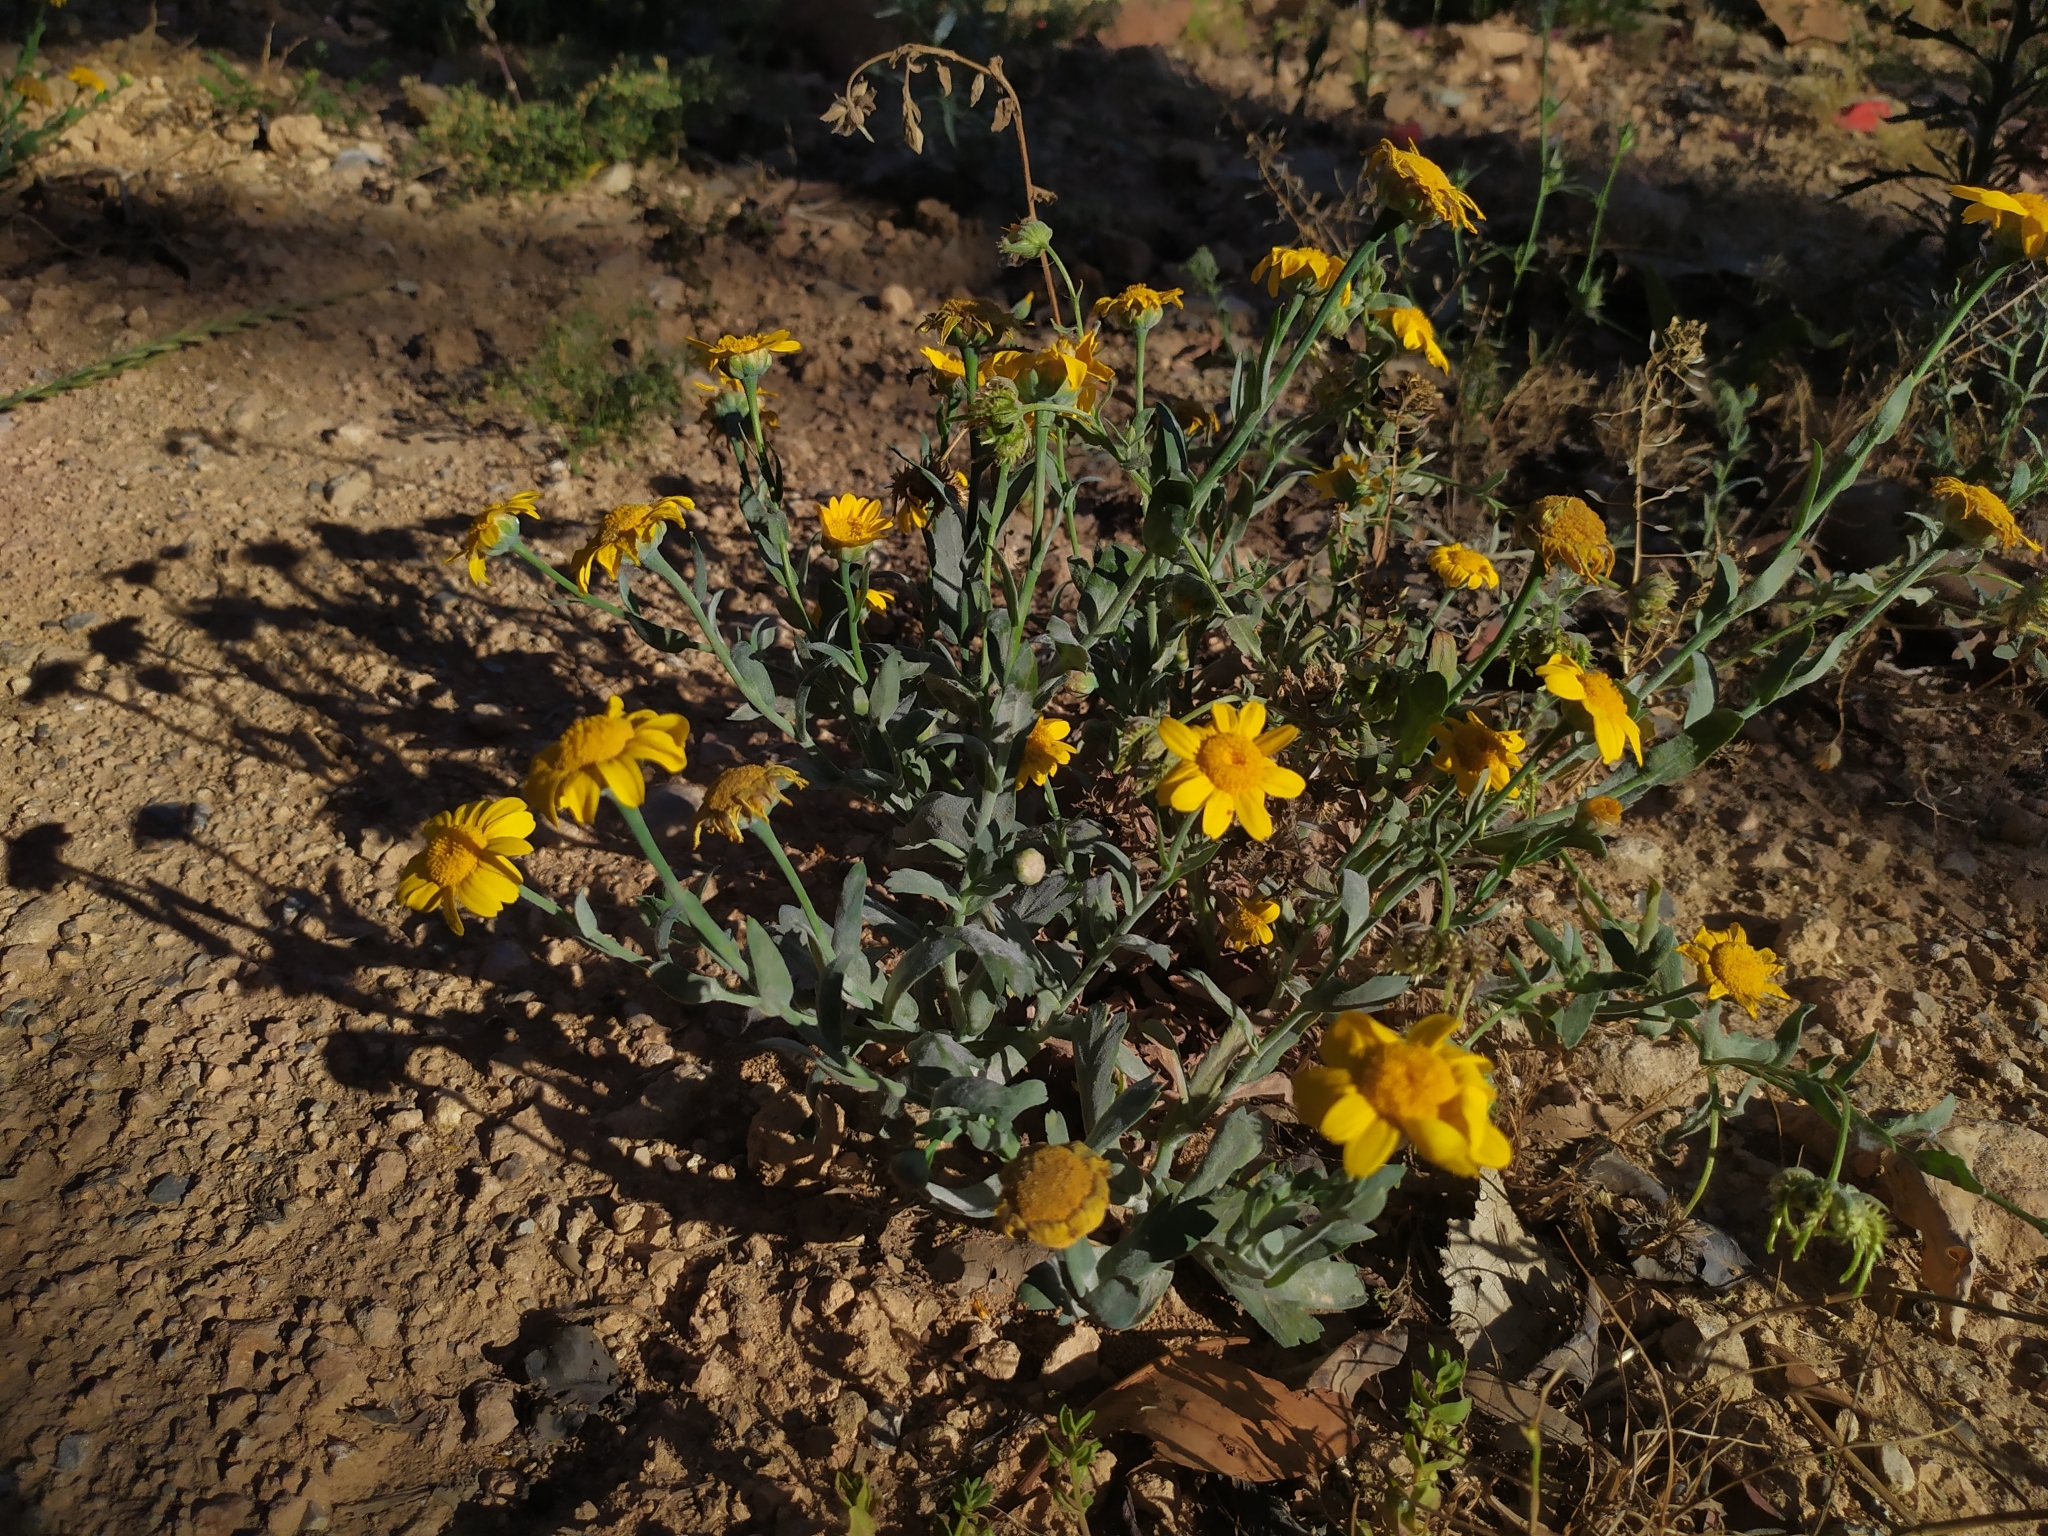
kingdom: Plantae
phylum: Tracheophyta
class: Magnoliopsida
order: Asterales
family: Asteraceae
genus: Glebionis
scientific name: Glebionis segetum
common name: Corndaisy
